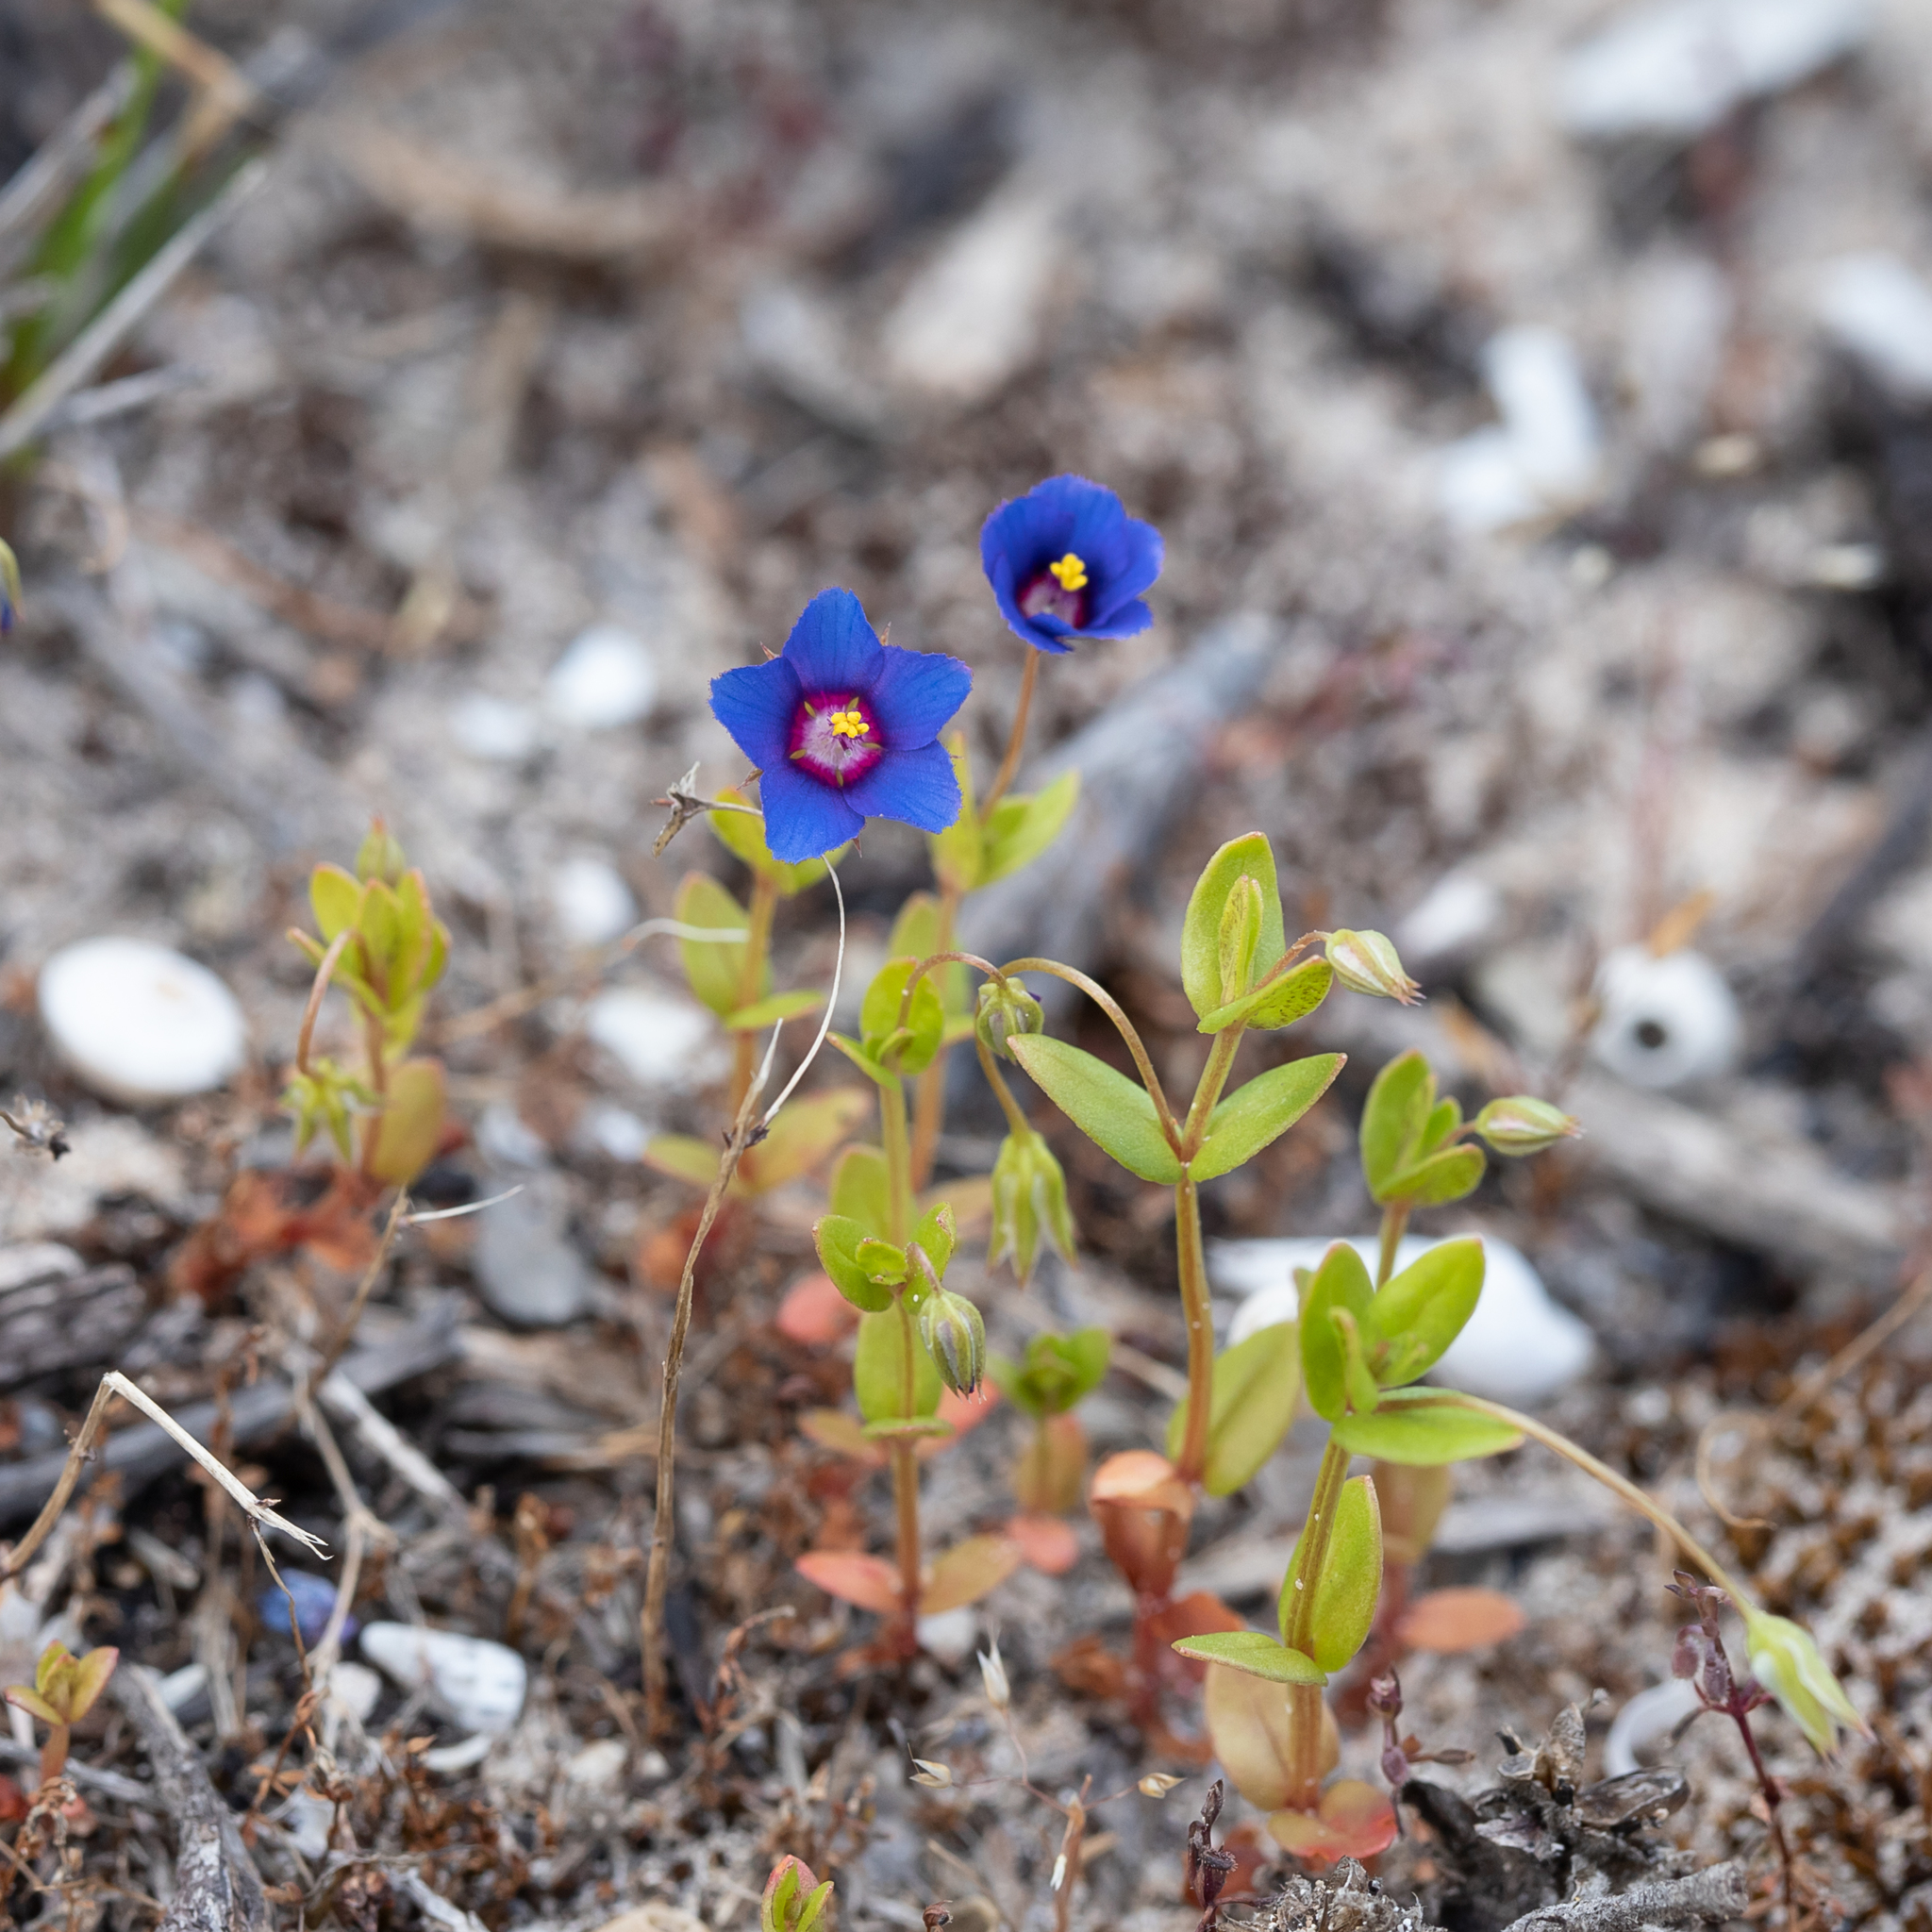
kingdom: Plantae
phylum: Tracheophyta
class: Magnoliopsida
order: Ericales
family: Primulaceae
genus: Lysimachia
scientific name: Lysimachia loeflingii
